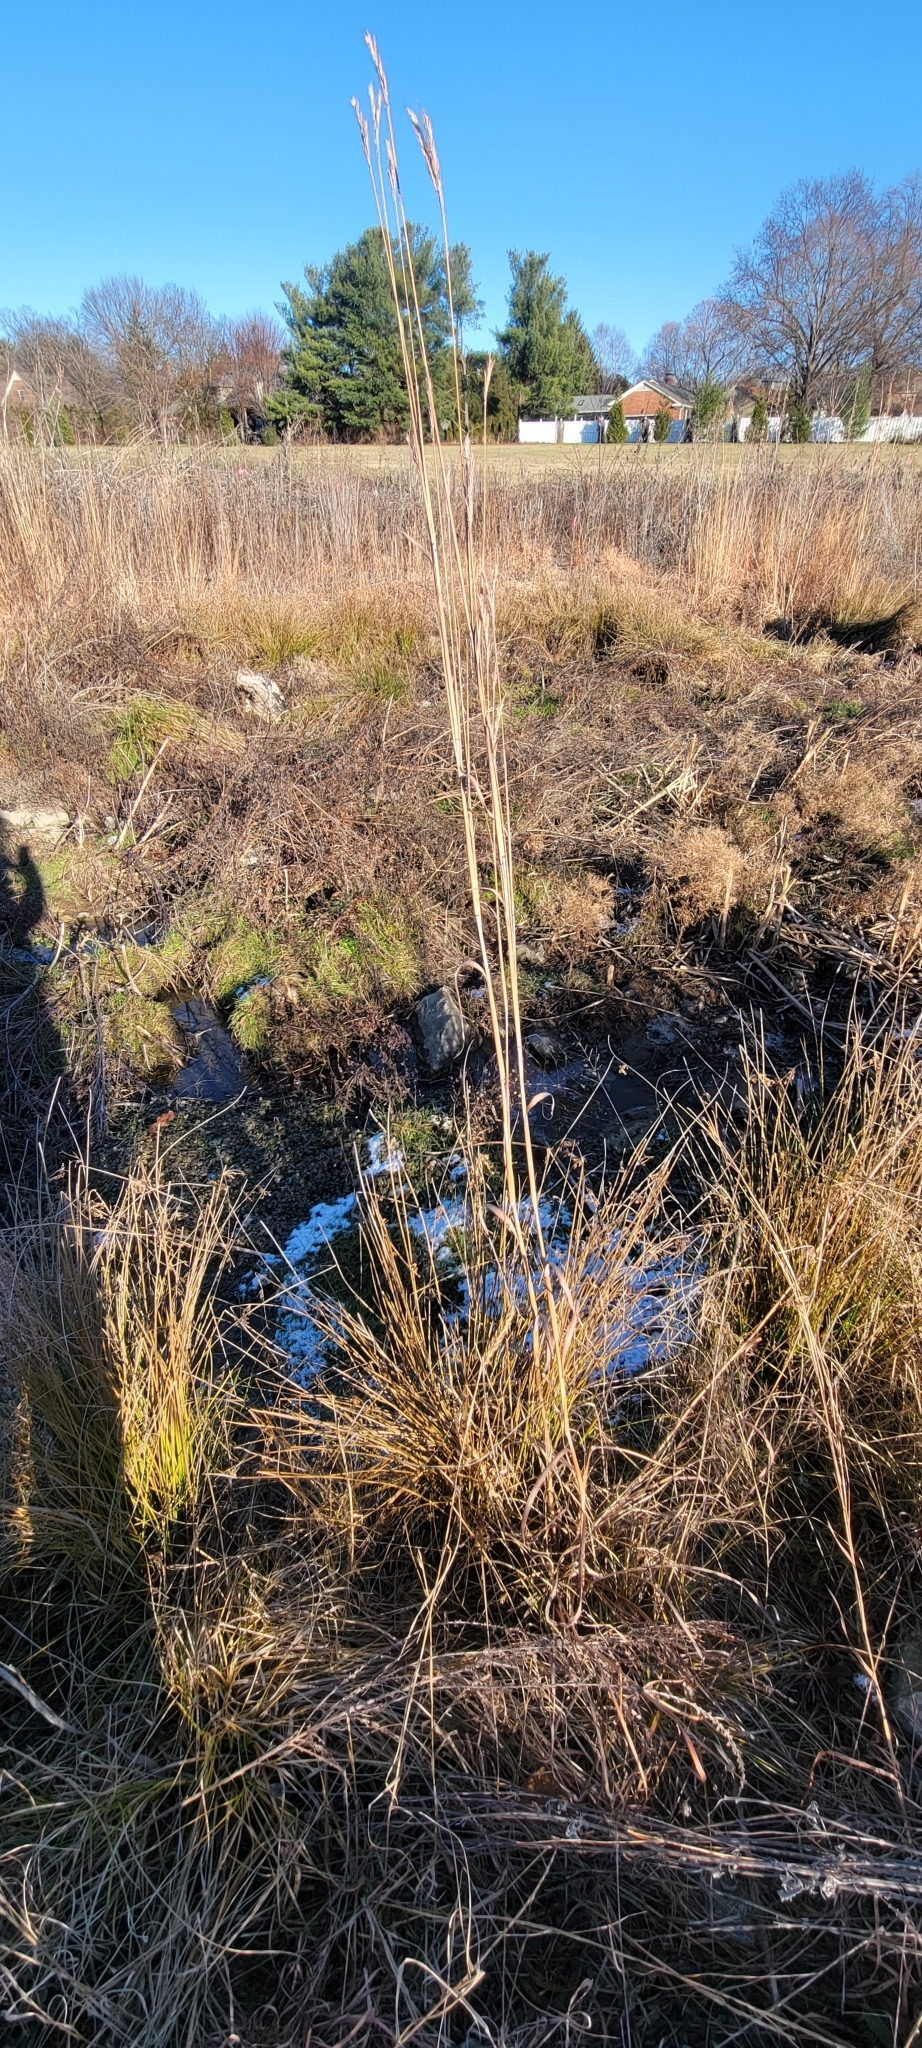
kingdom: Plantae
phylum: Tracheophyta
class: Liliopsida
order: Poales
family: Poaceae
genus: Andropogon
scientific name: Andropogon gerardi
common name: Big bluestem
